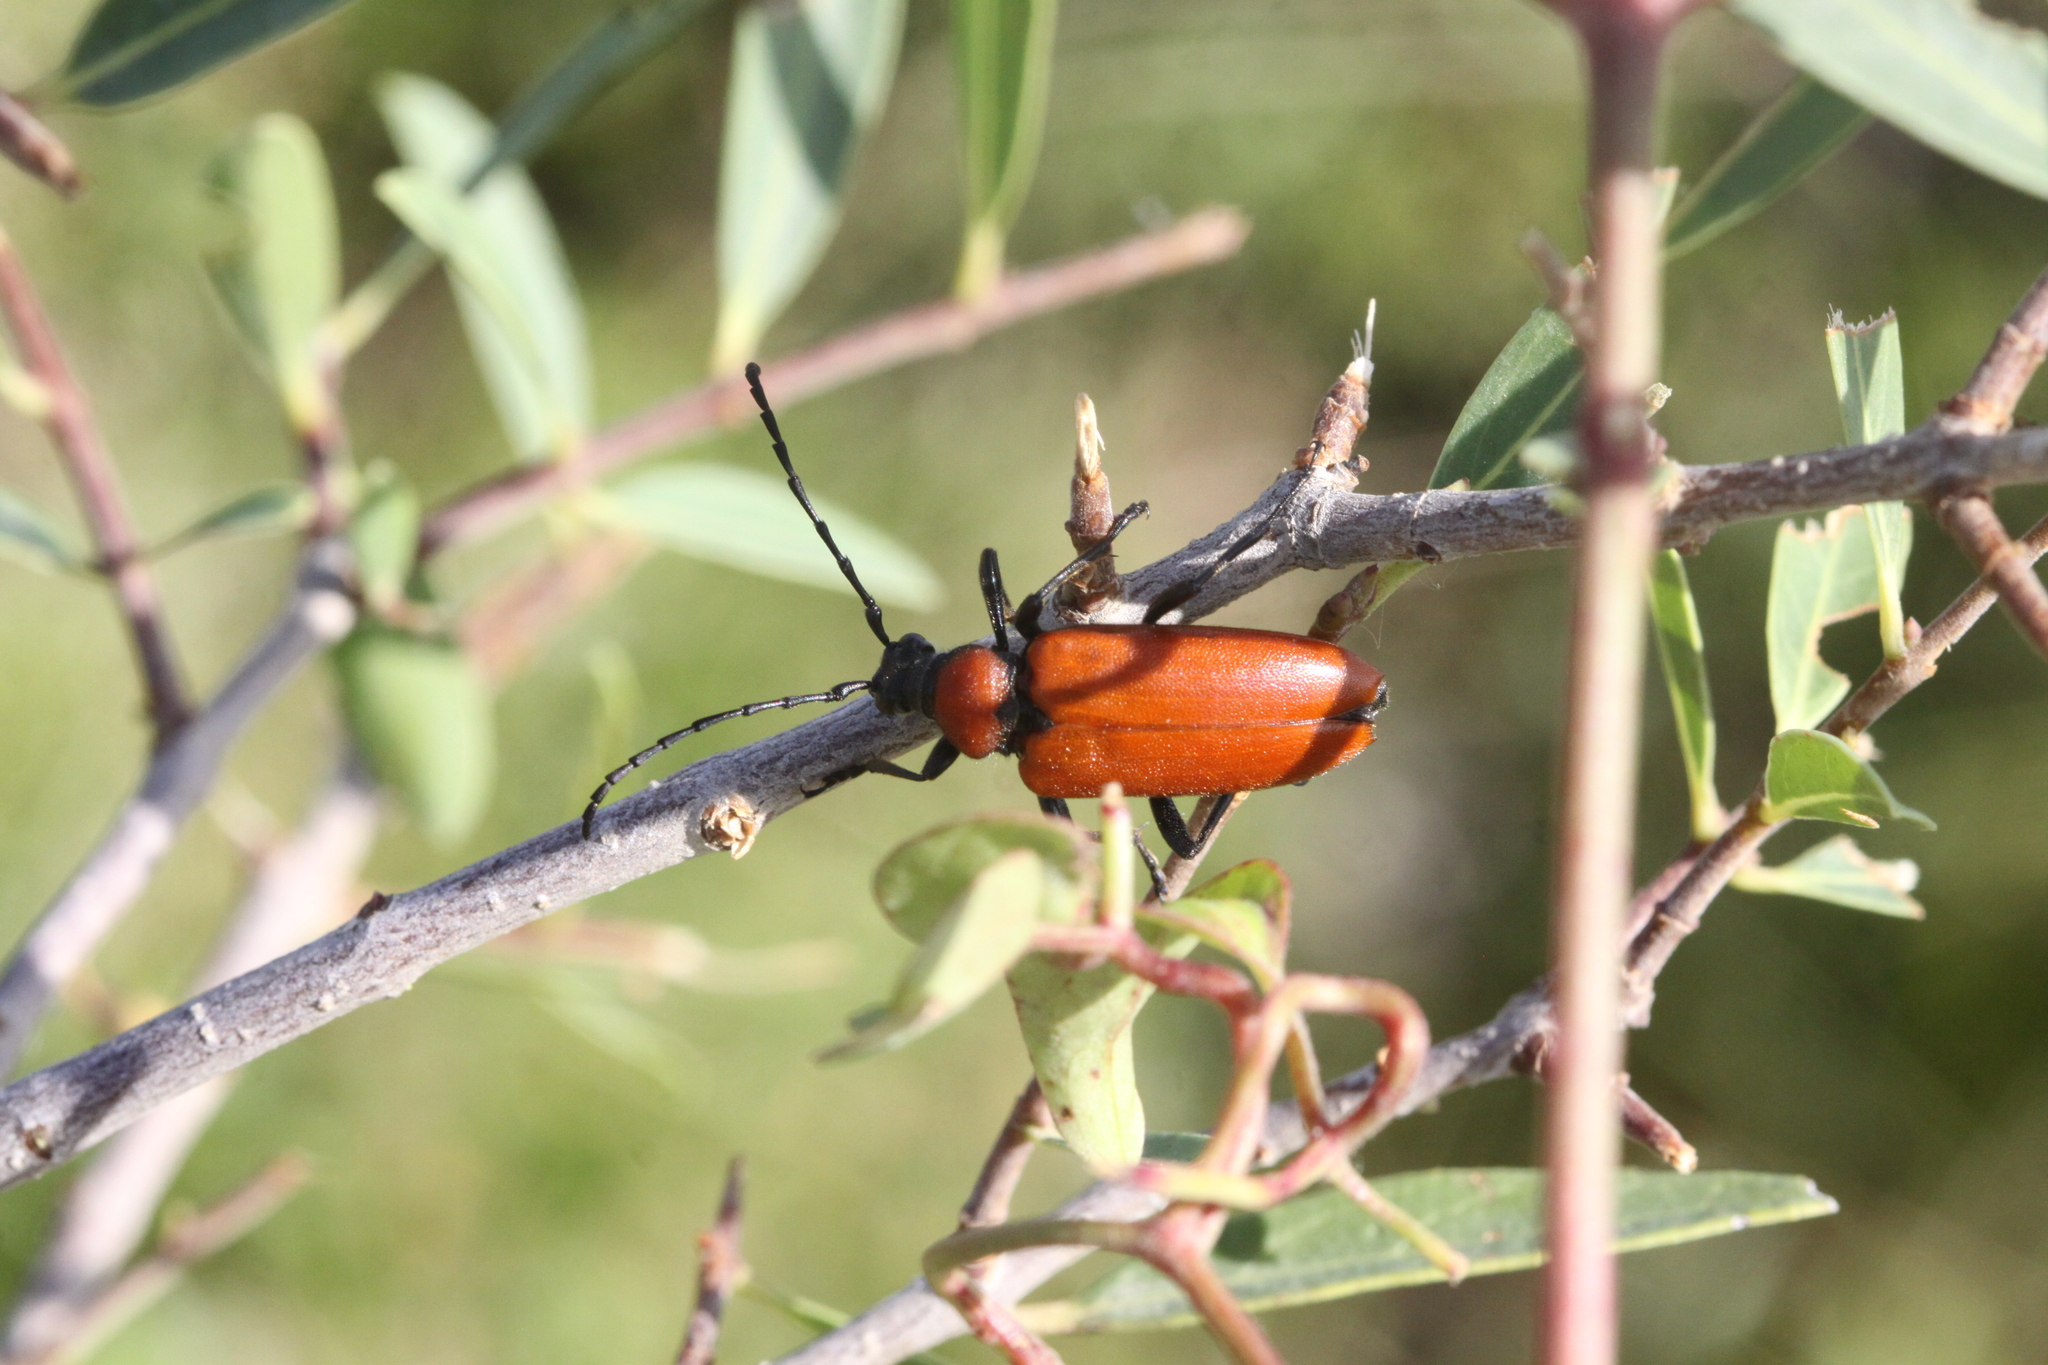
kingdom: Animalia
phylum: Arthropoda
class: Insecta
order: Coleoptera
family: Cerambycidae
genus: Stictoleptura
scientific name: Stictoleptura fontenayi
